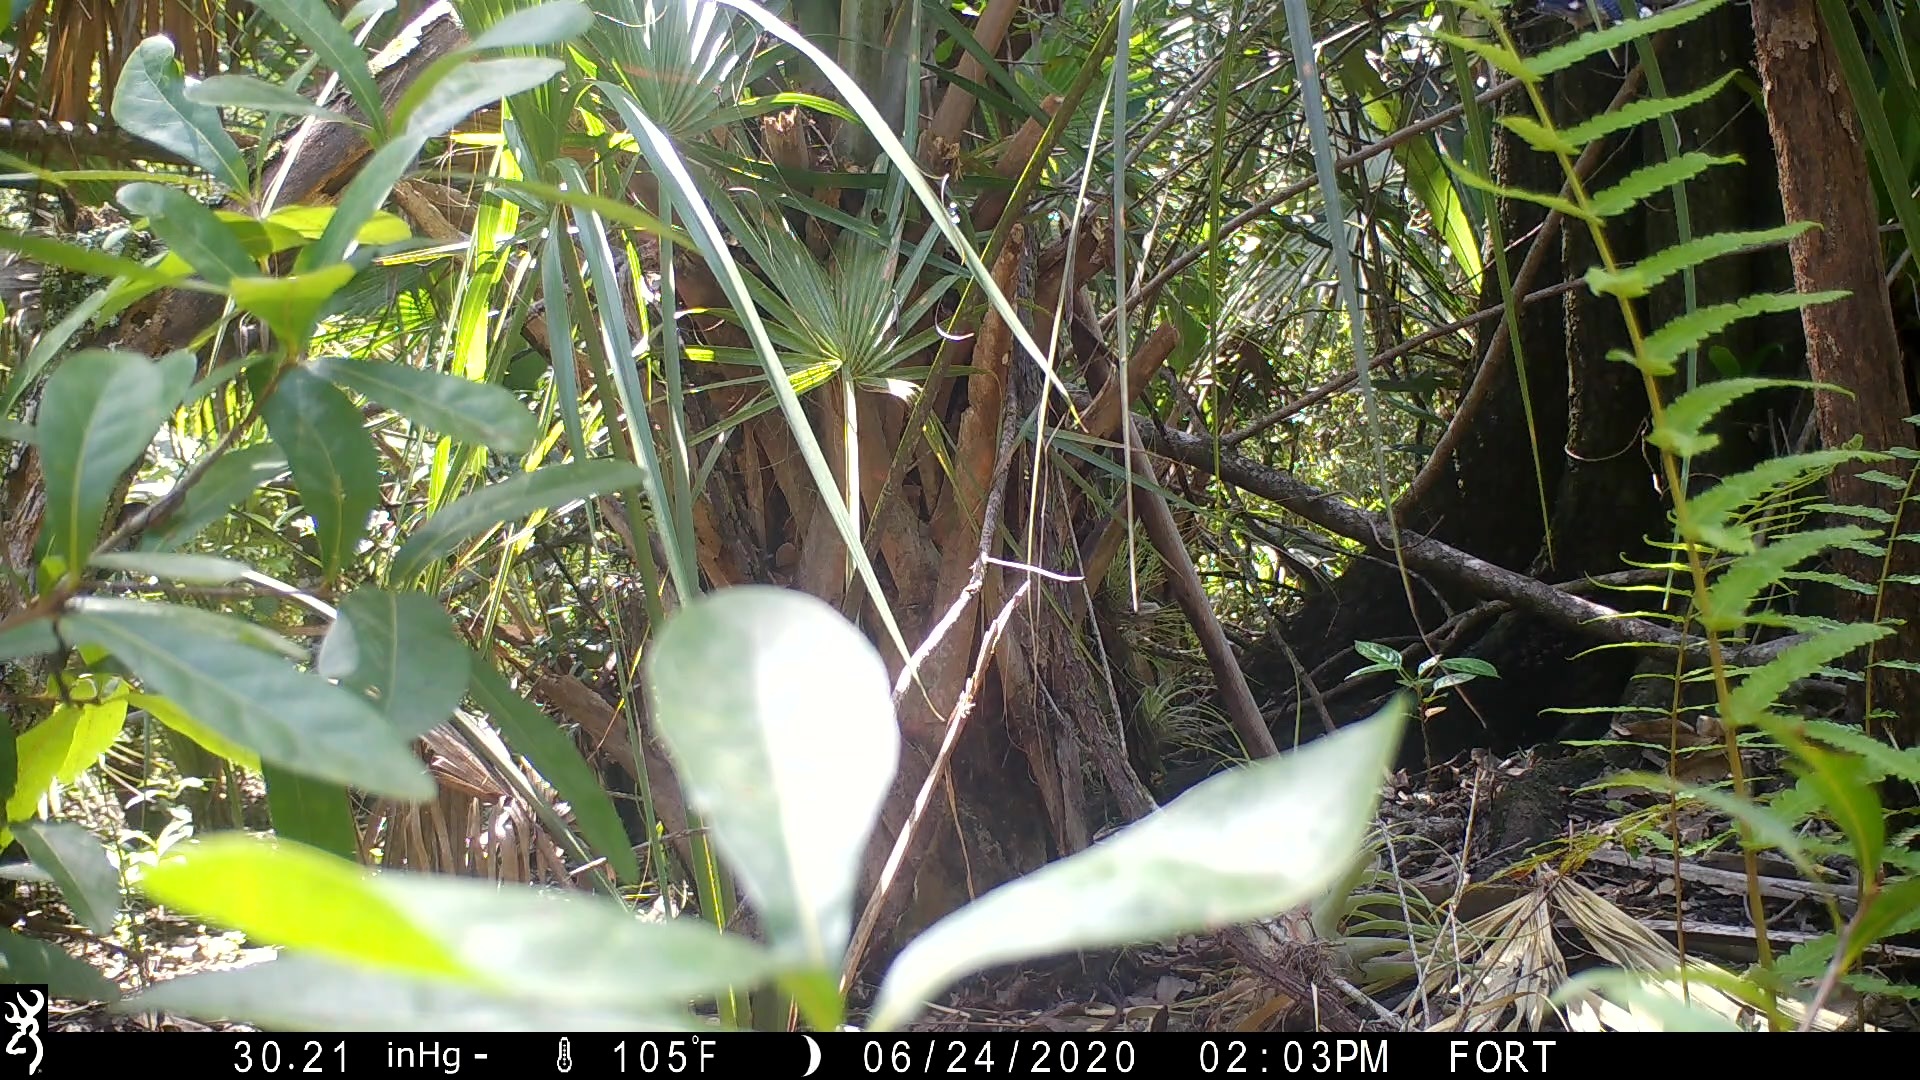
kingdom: Animalia
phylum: Chordata
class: Aves
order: Passeriformes
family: Corvidae
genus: Cyanocitta
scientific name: Cyanocitta cristata
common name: Blue jay
